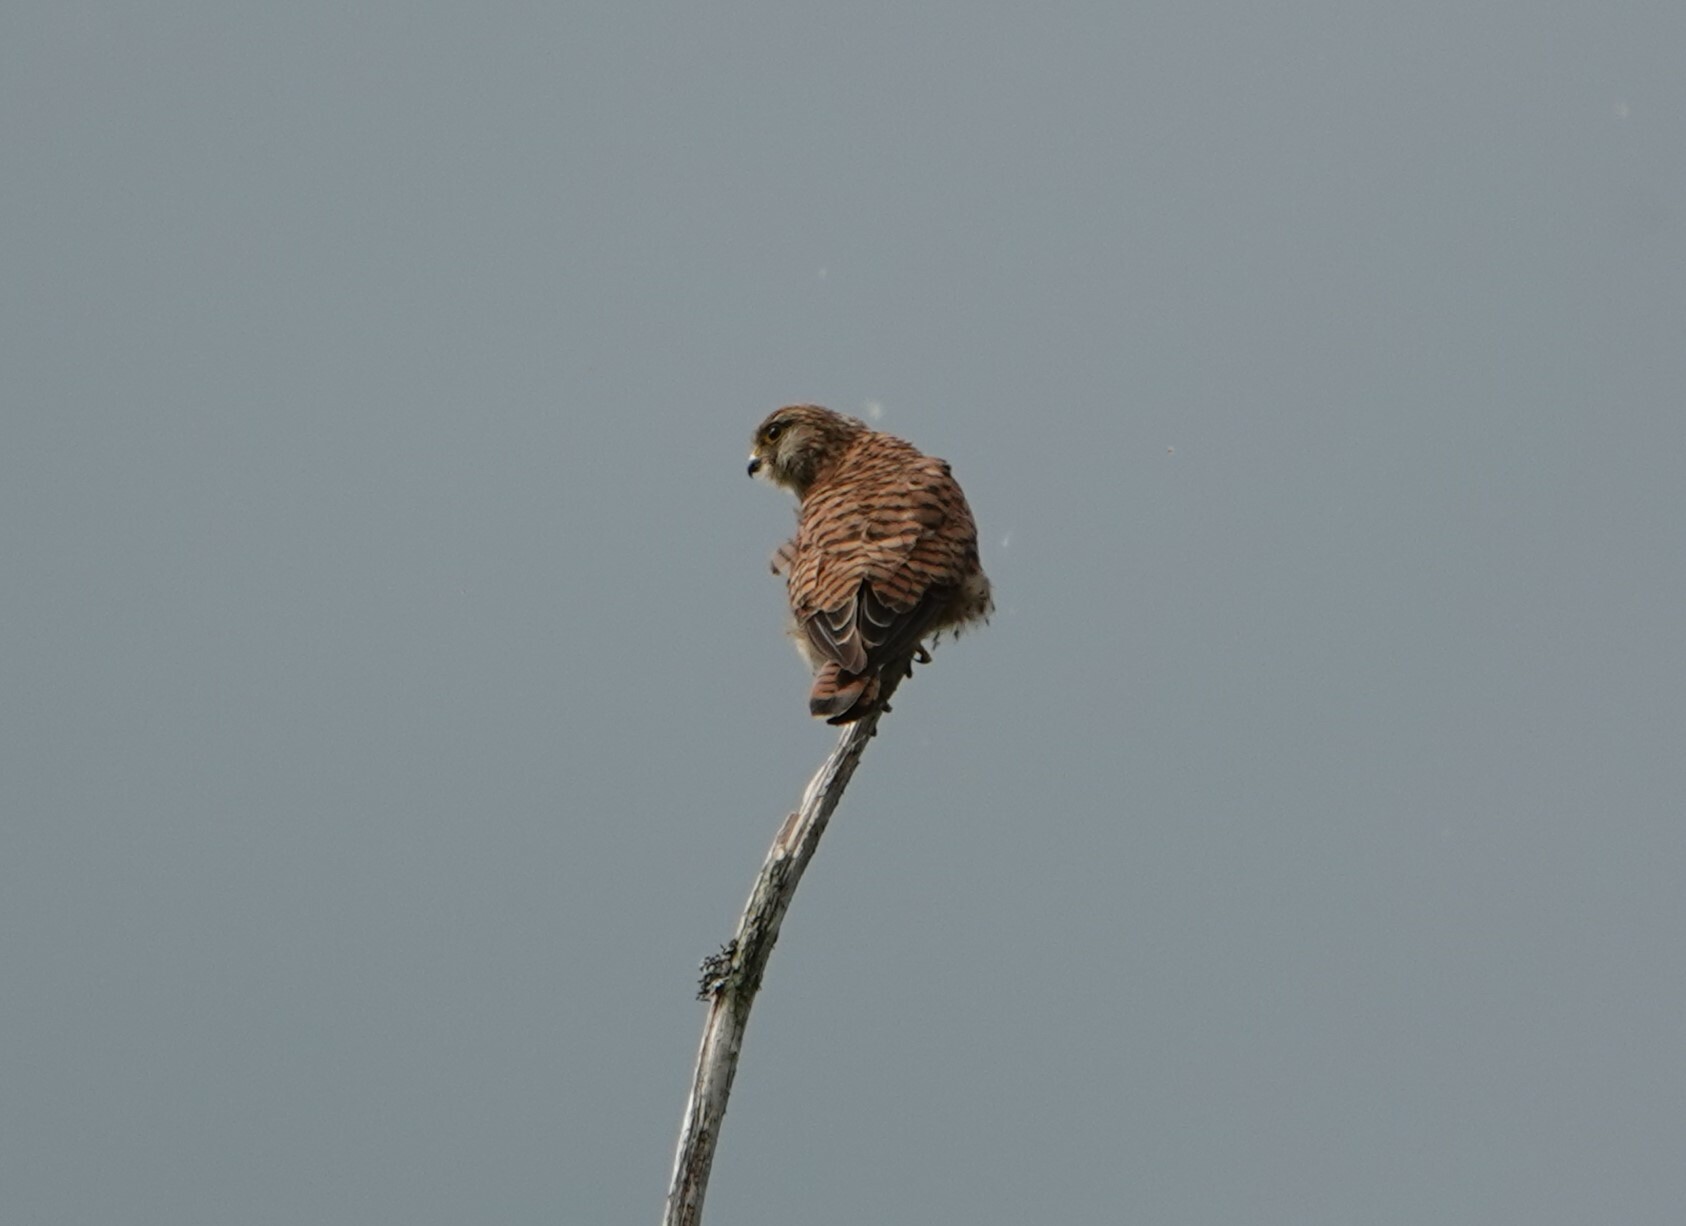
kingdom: Animalia
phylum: Chordata
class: Aves
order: Falconiformes
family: Falconidae
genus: Falco
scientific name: Falco tinnunculus
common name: Common kestrel
